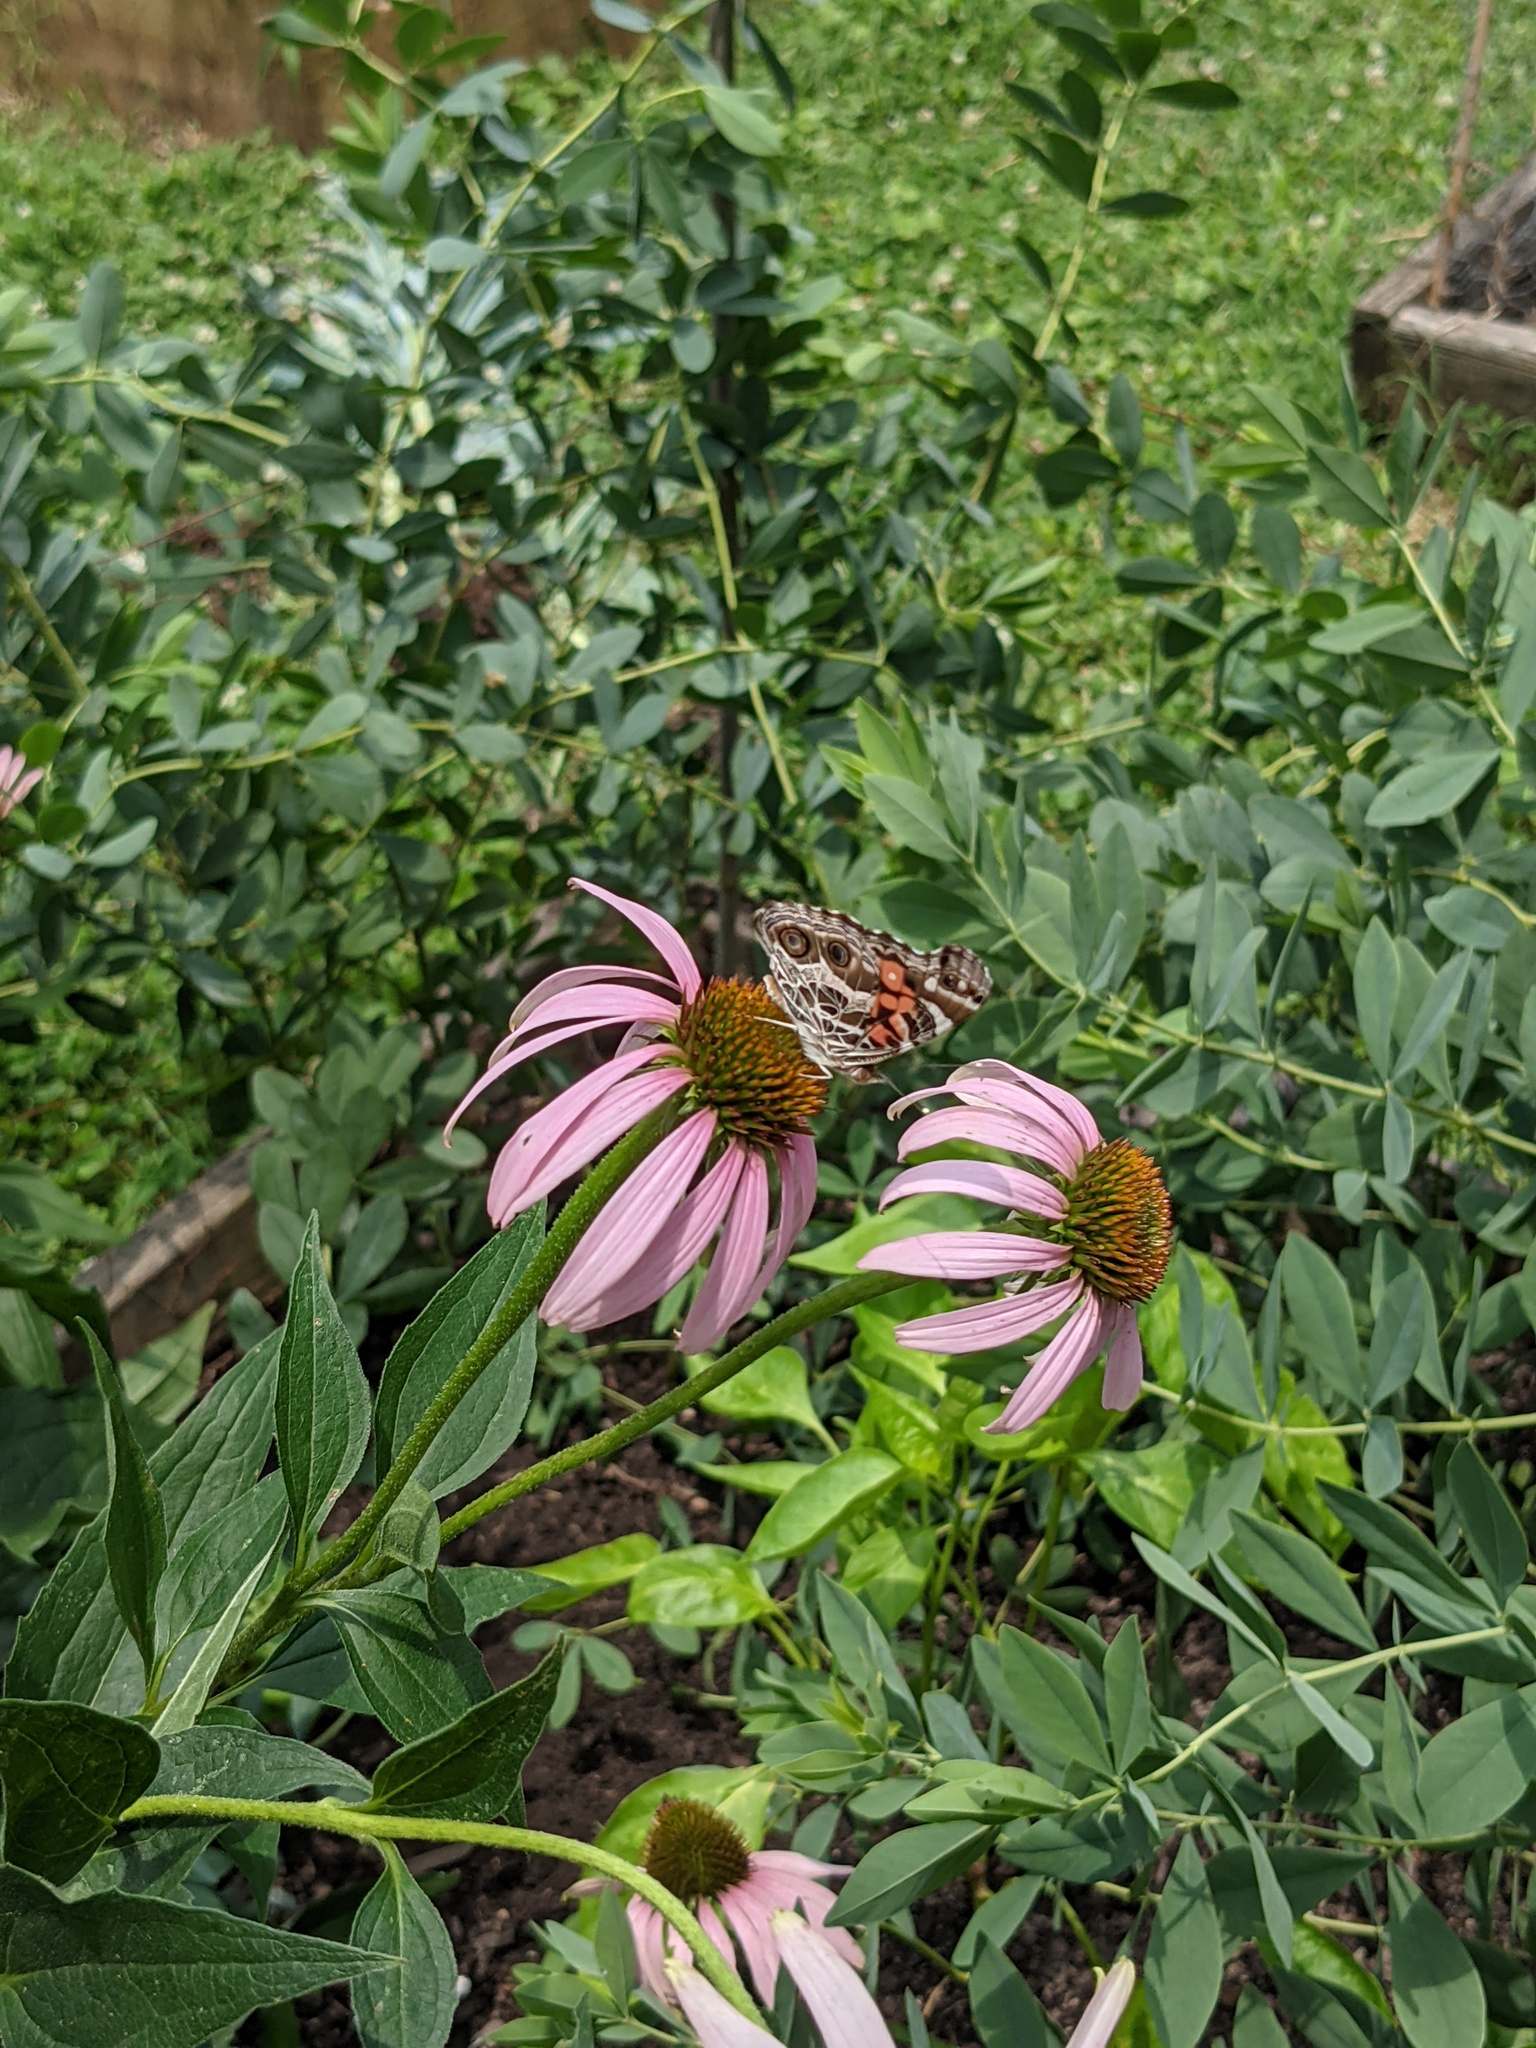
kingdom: Animalia
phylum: Arthropoda
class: Insecta
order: Lepidoptera
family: Nymphalidae
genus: Vanessa
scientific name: Vanessa virginiensis
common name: American lady
